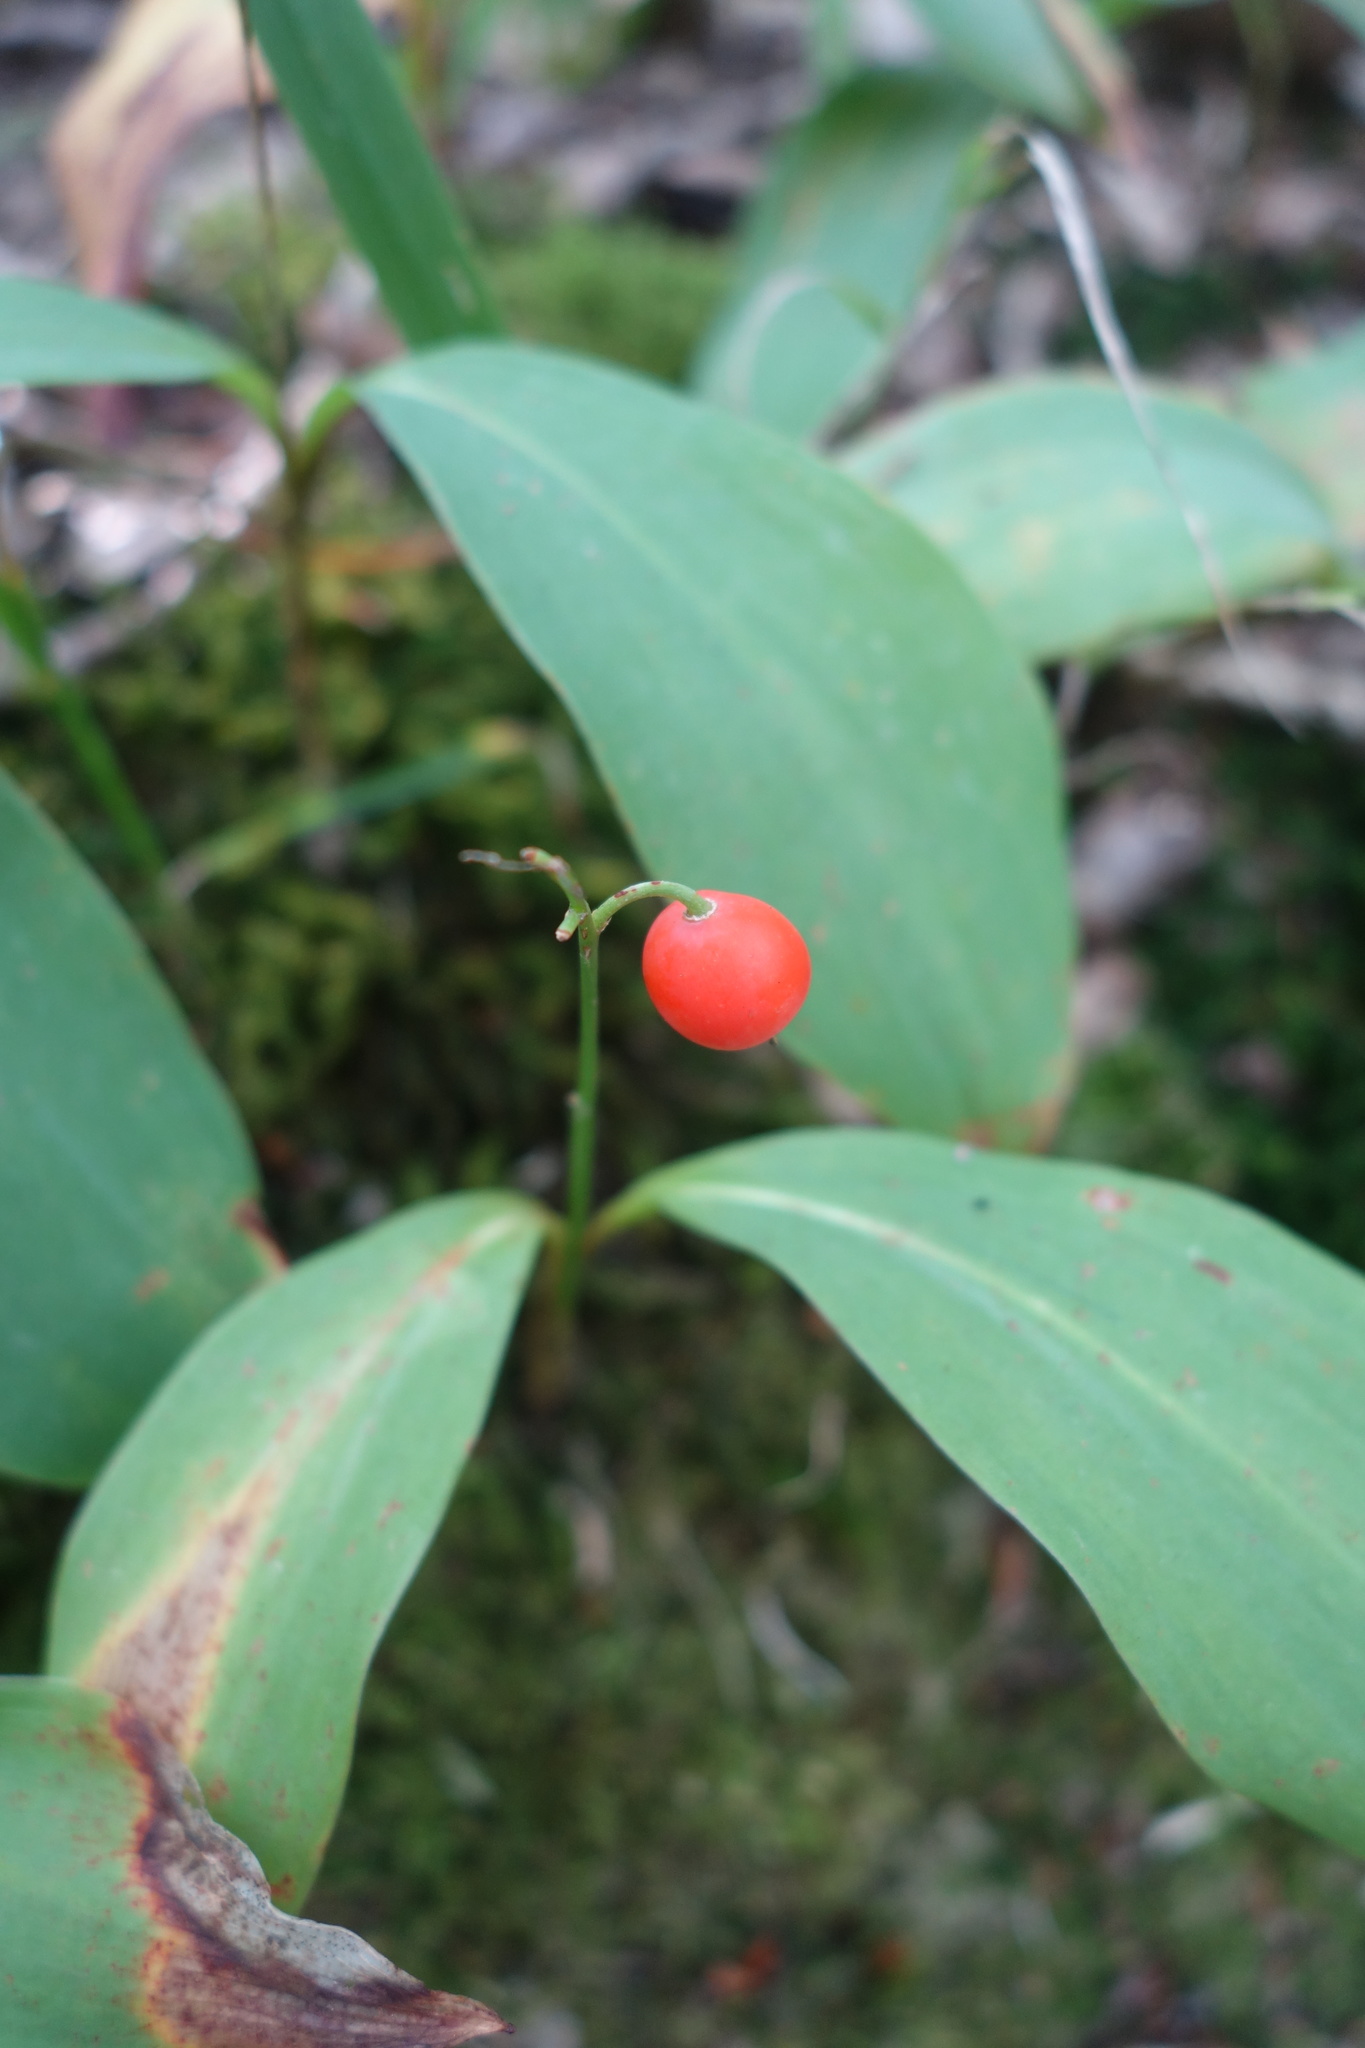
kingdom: Plantae
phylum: Tracheophyta
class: Liliopsida
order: Asparagales
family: Asparagaceae
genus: Convallaria
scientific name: Convallaria majalis
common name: Lily-of-the-valley
